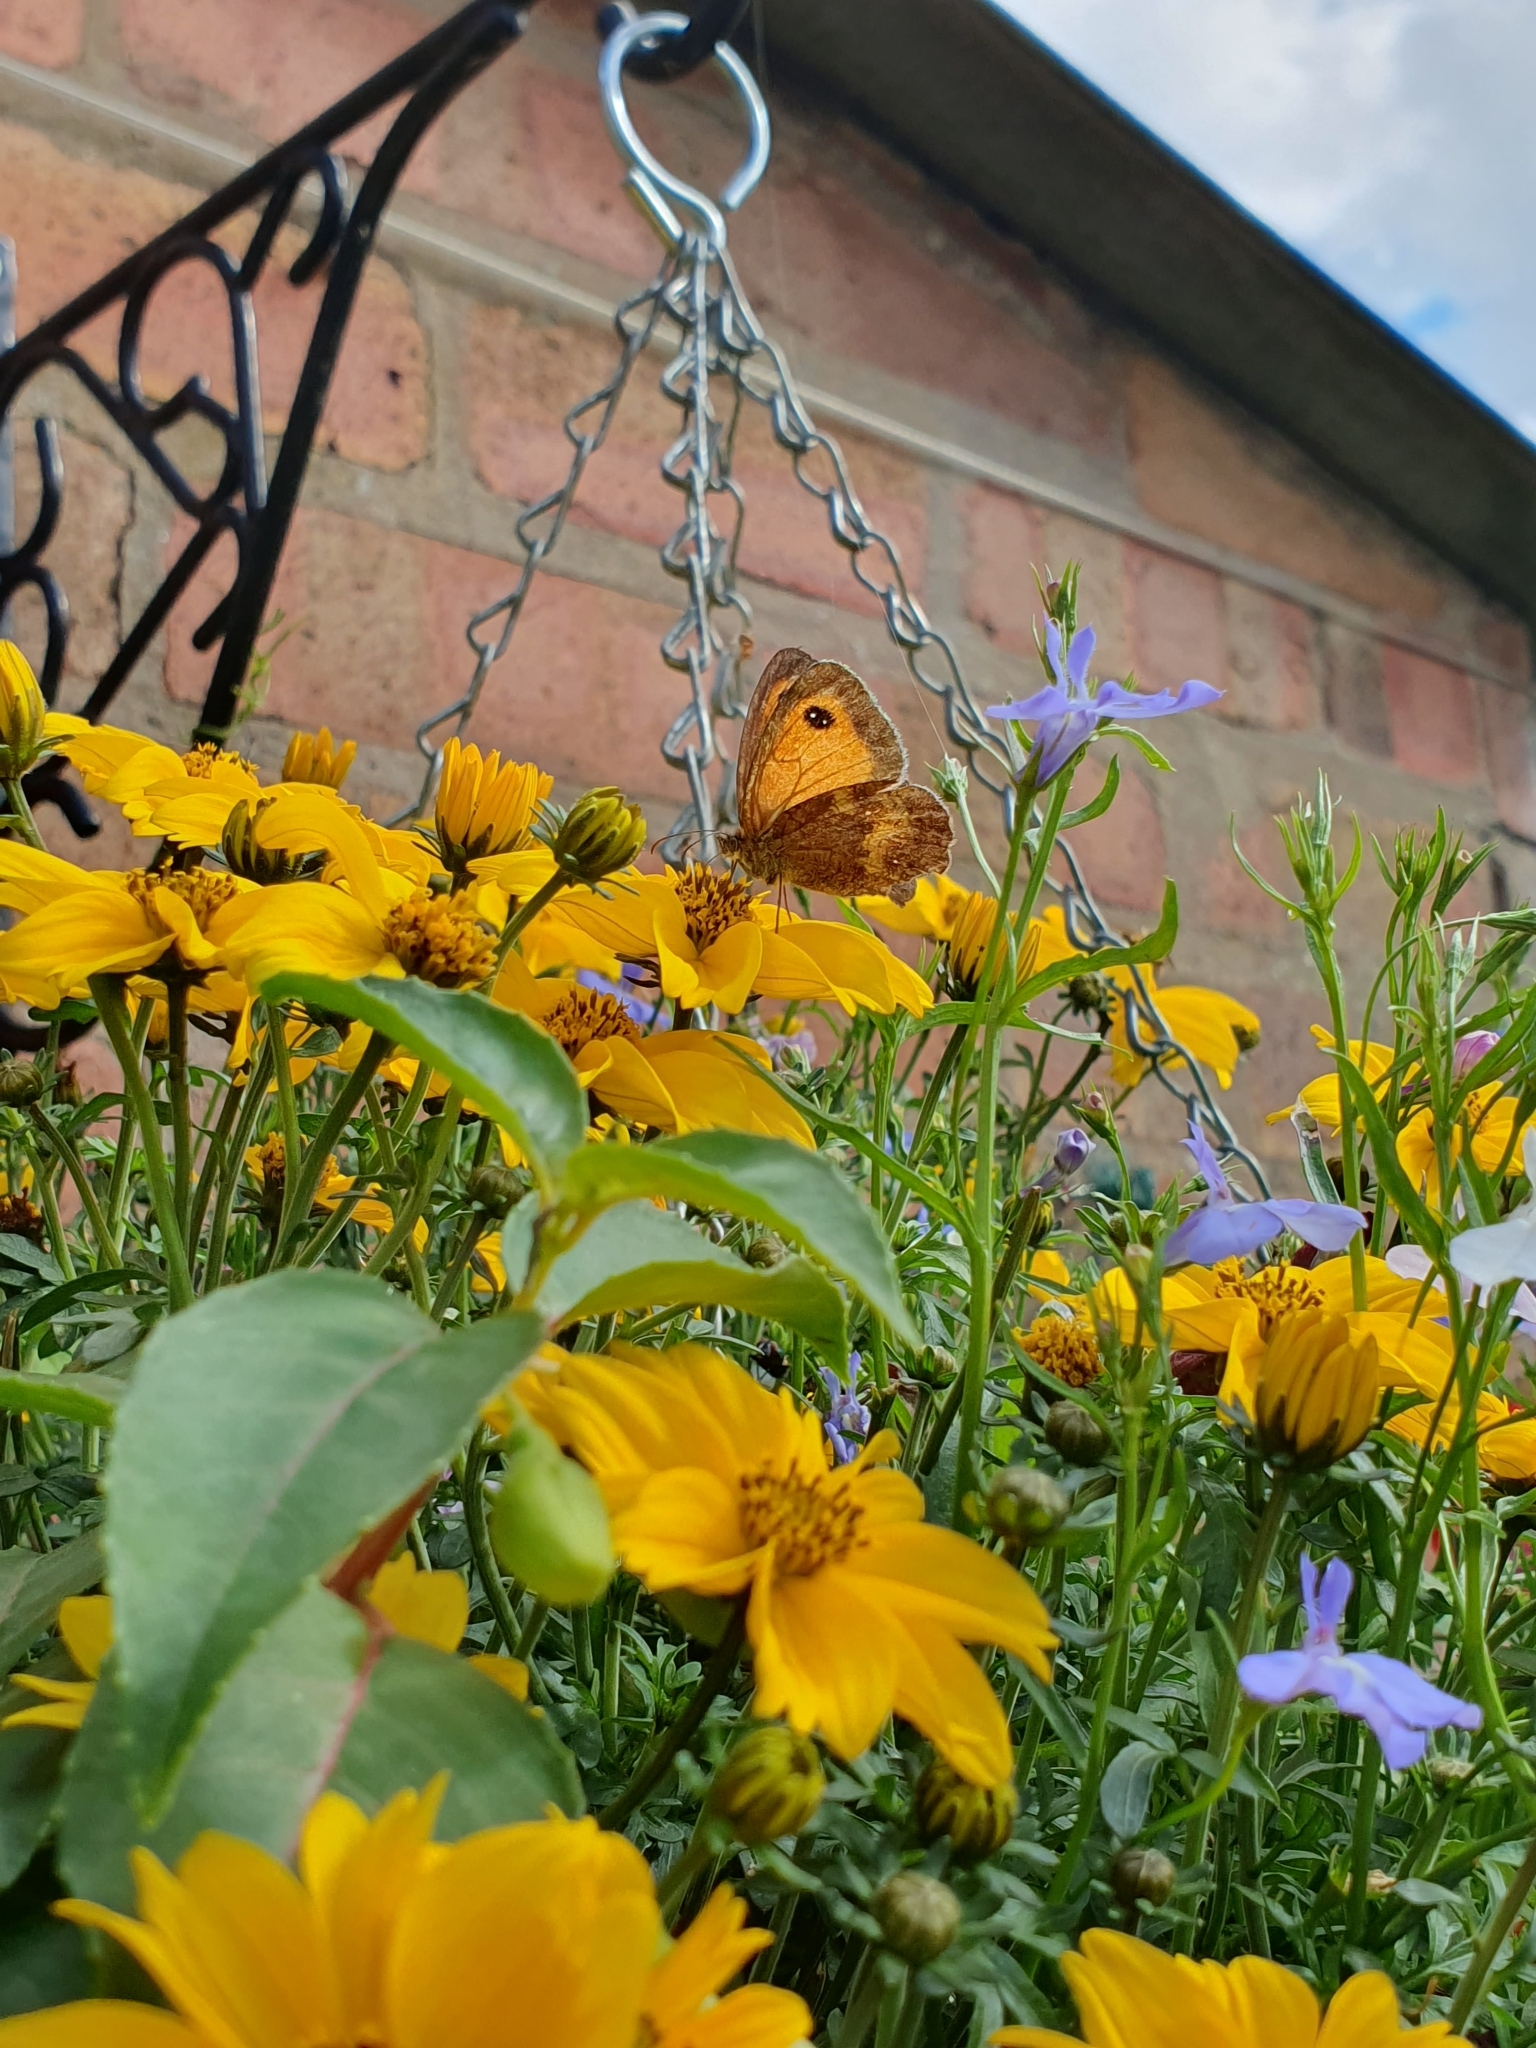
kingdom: Animalia
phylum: Arthropoda
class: Insecta
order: Lepidoptera
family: Nymphalidae
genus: Pyronia
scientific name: Pyronia tithonus
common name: Gatekeeper
